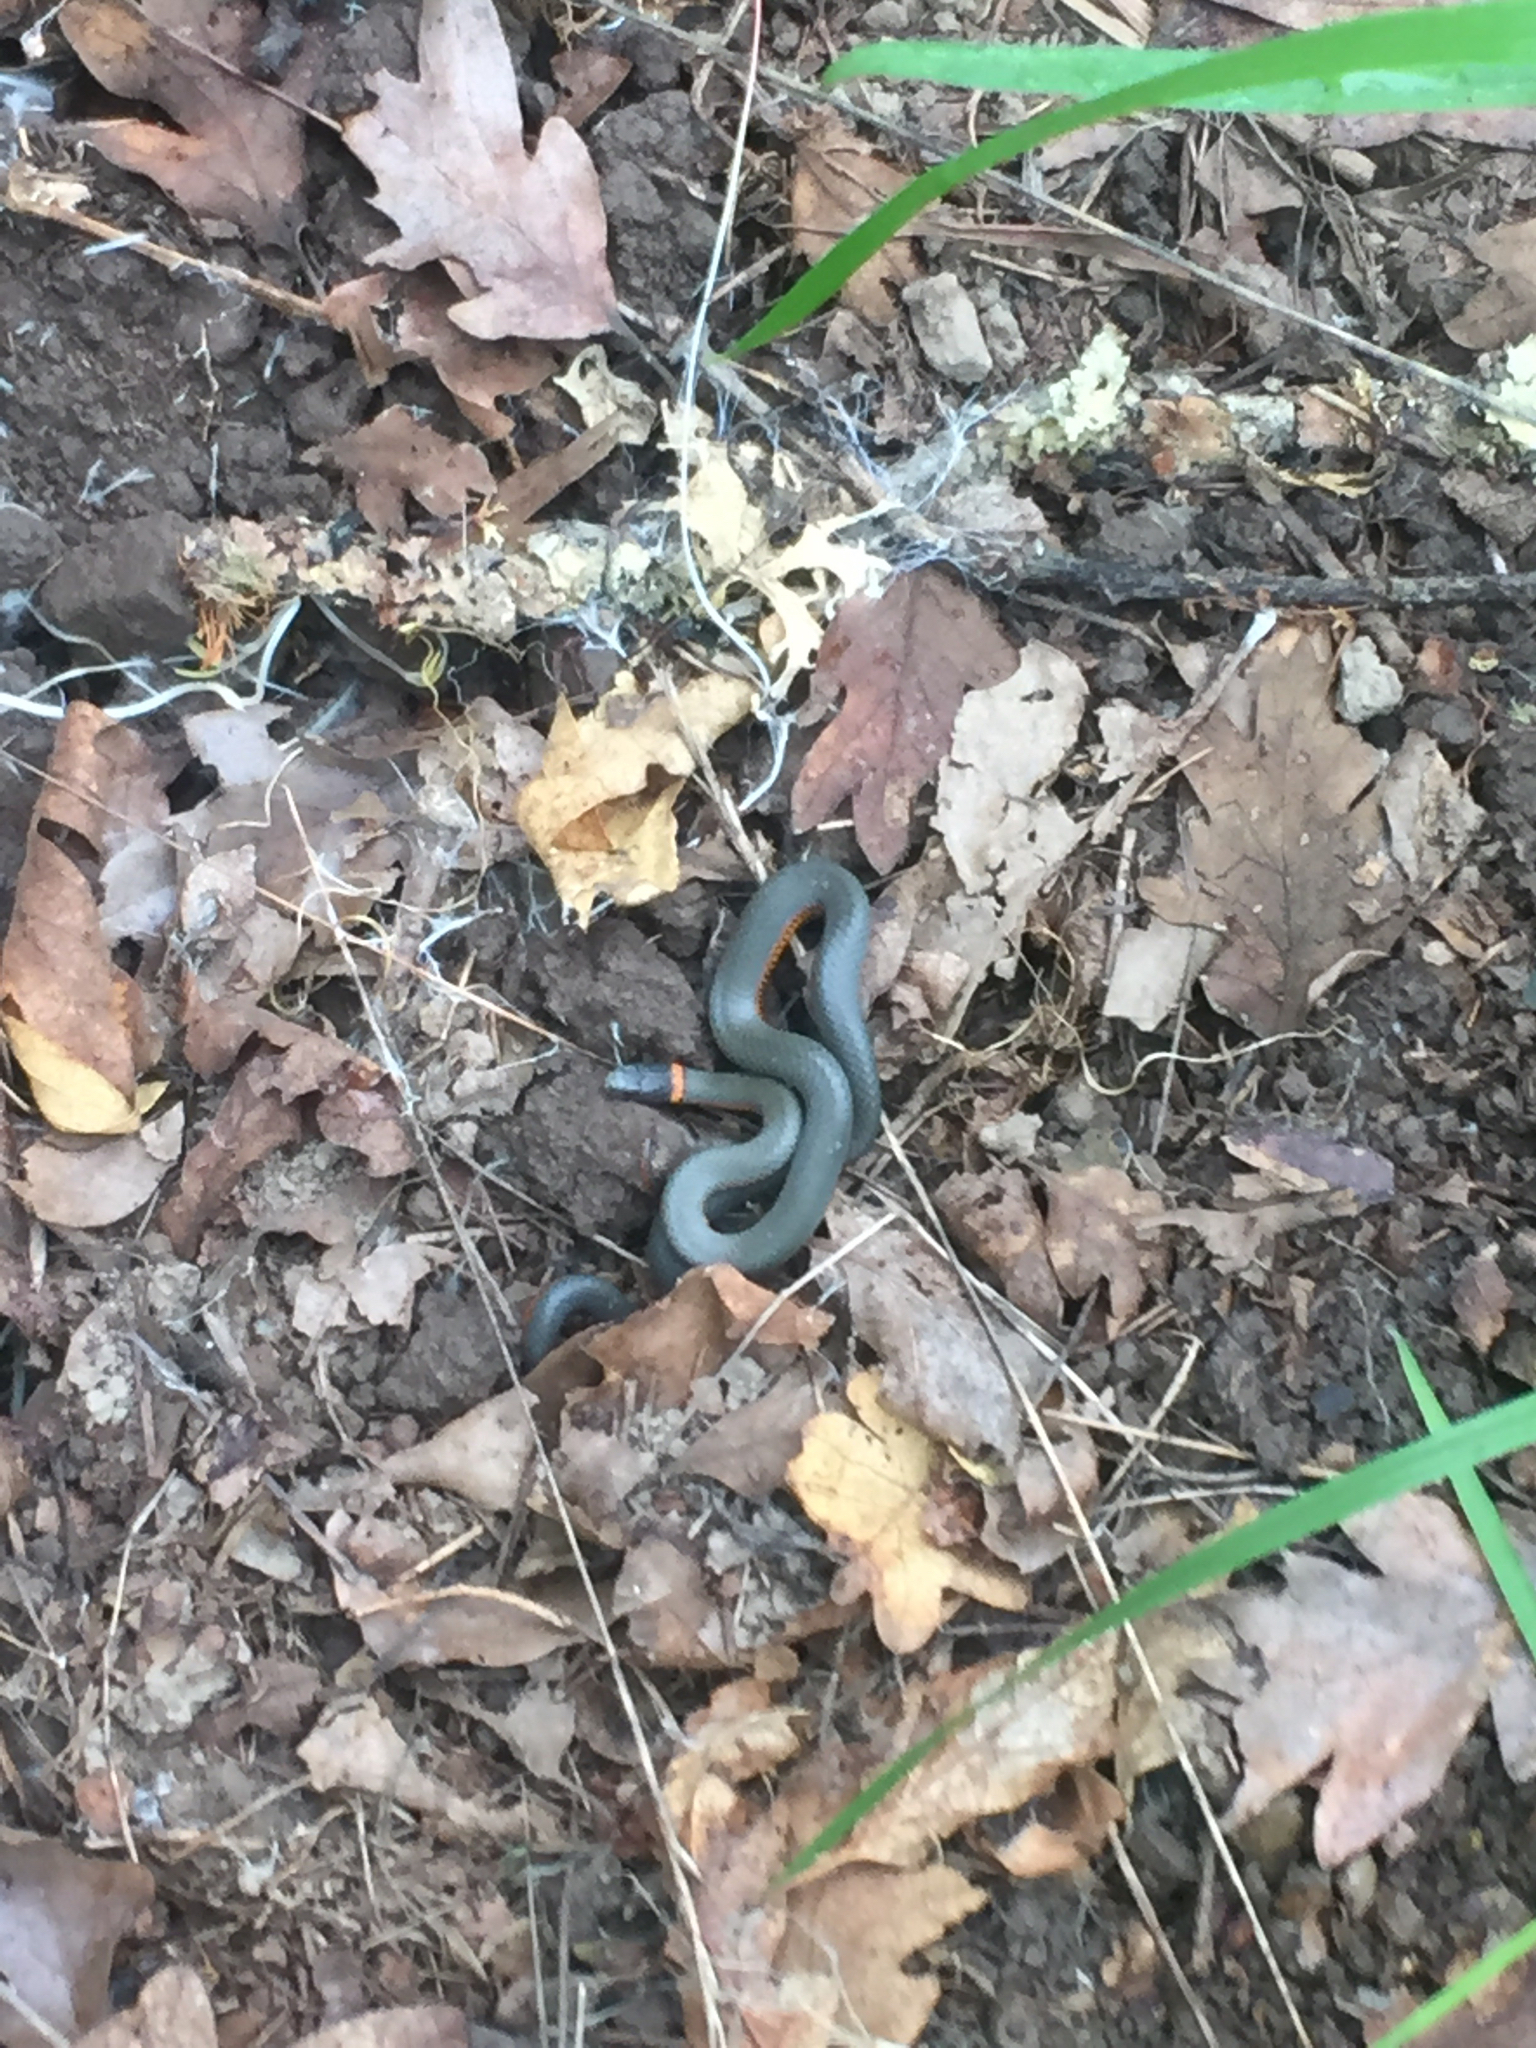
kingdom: Animalia
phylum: Chordata
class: Squamata
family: Colubridae
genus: Diadophis
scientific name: Diadophis punctatus
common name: Ringneck snake
